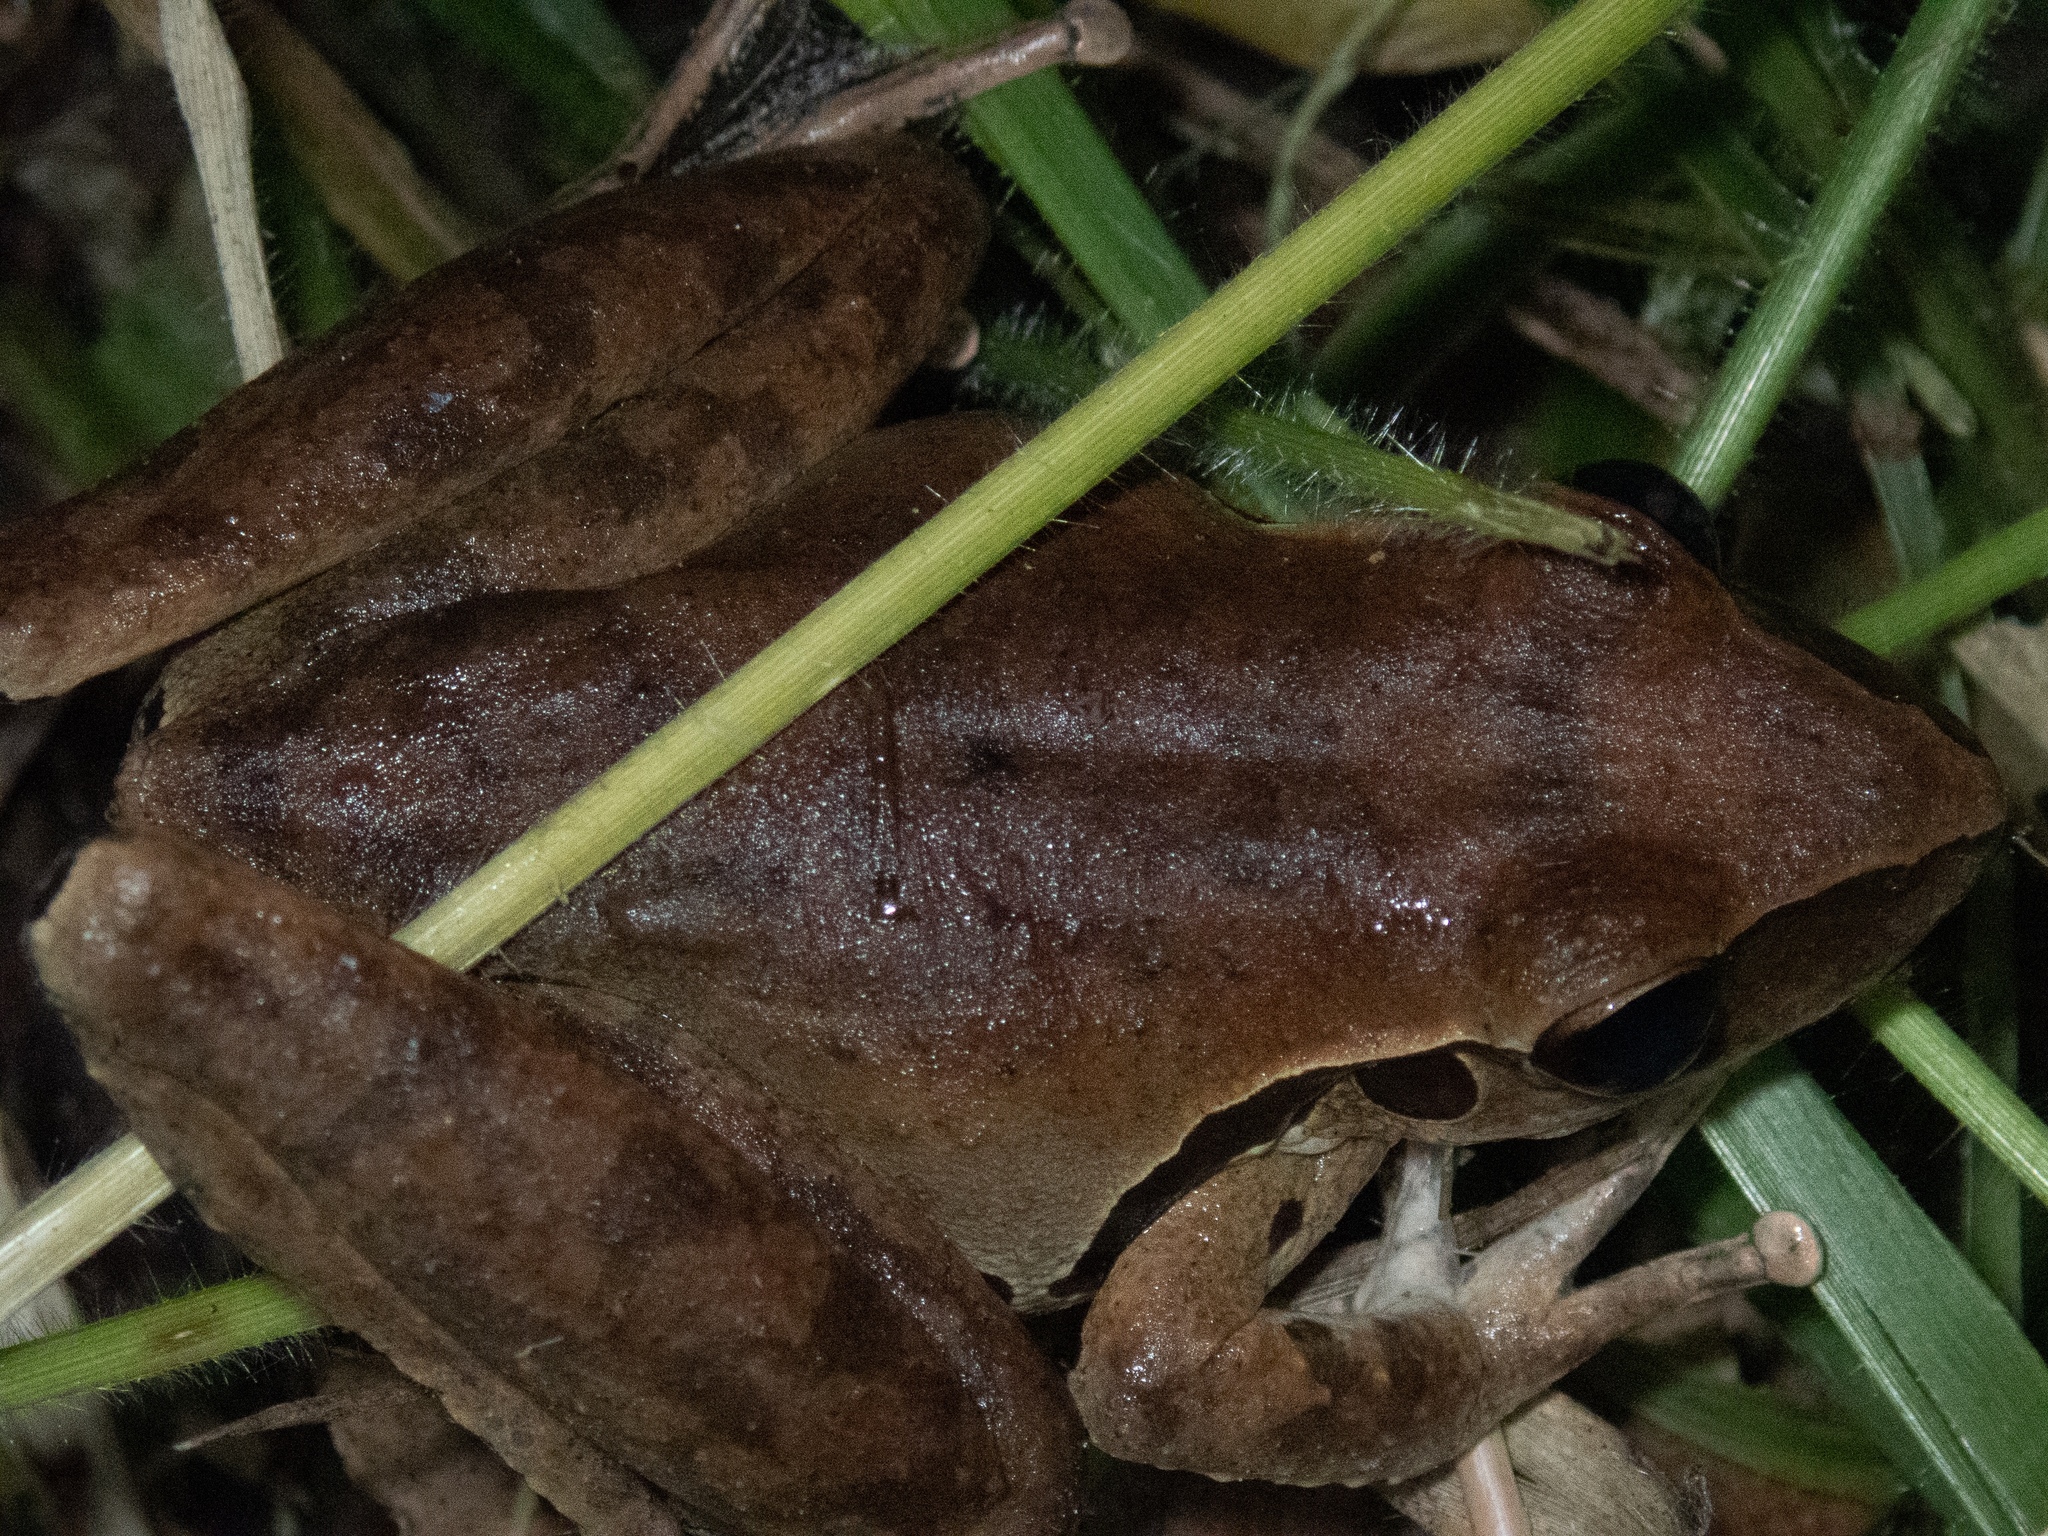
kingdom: Animalia
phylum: Chordata
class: Amphibia
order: Anura
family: Ranidae
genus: Papurana
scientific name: Papurana daemeli
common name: Arhem rana
